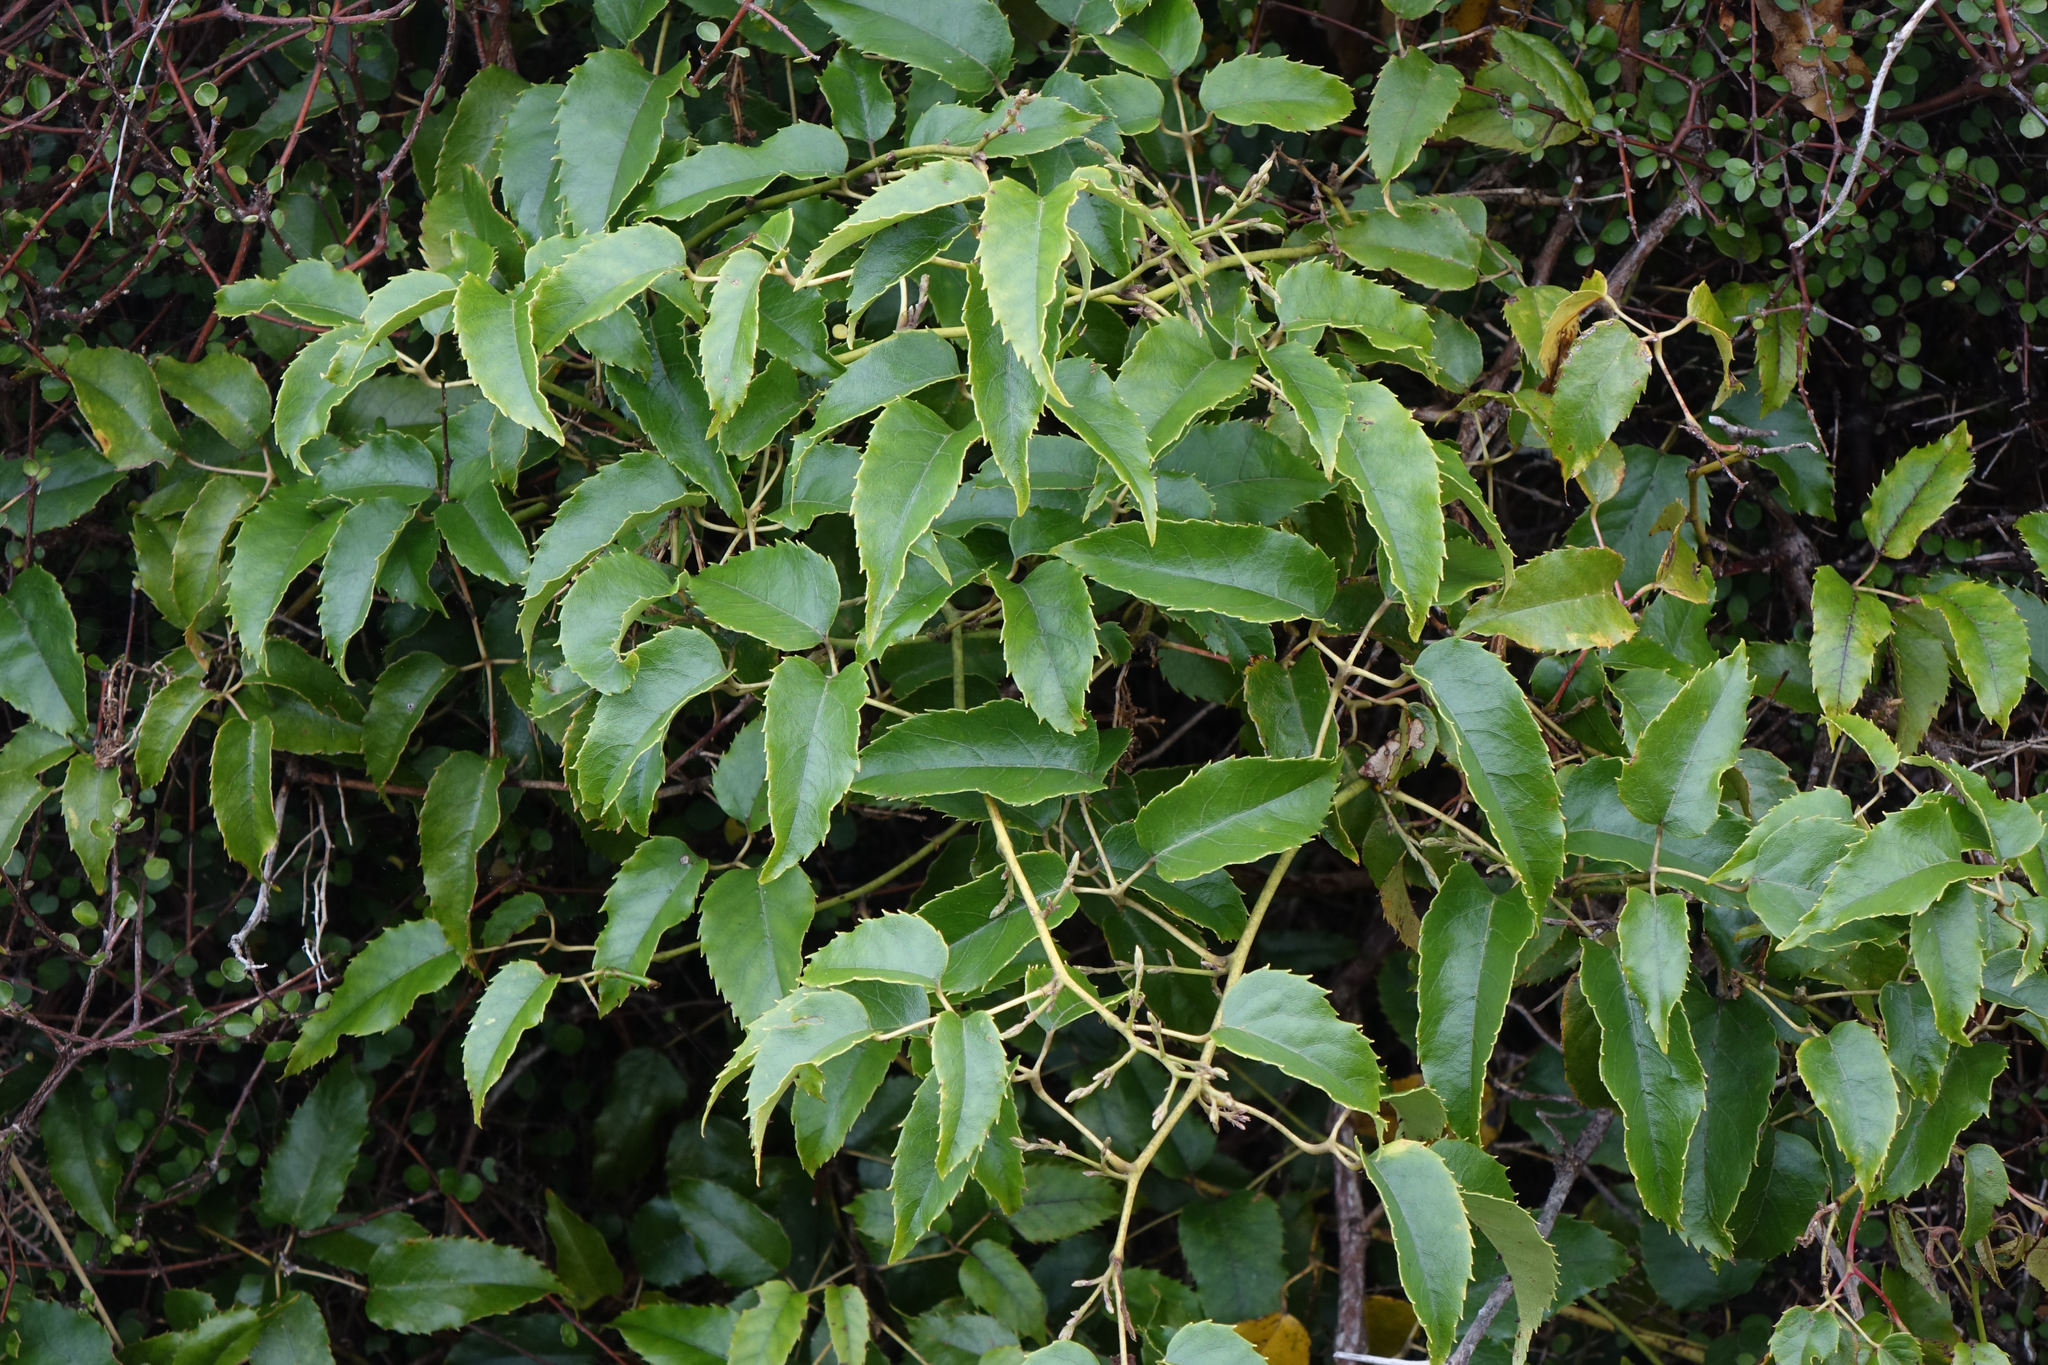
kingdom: Plantae
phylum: Tracheophyta
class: Magnoliopsida
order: Rosales
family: Rosaceae
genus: Rubus
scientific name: Rubus cissoides
